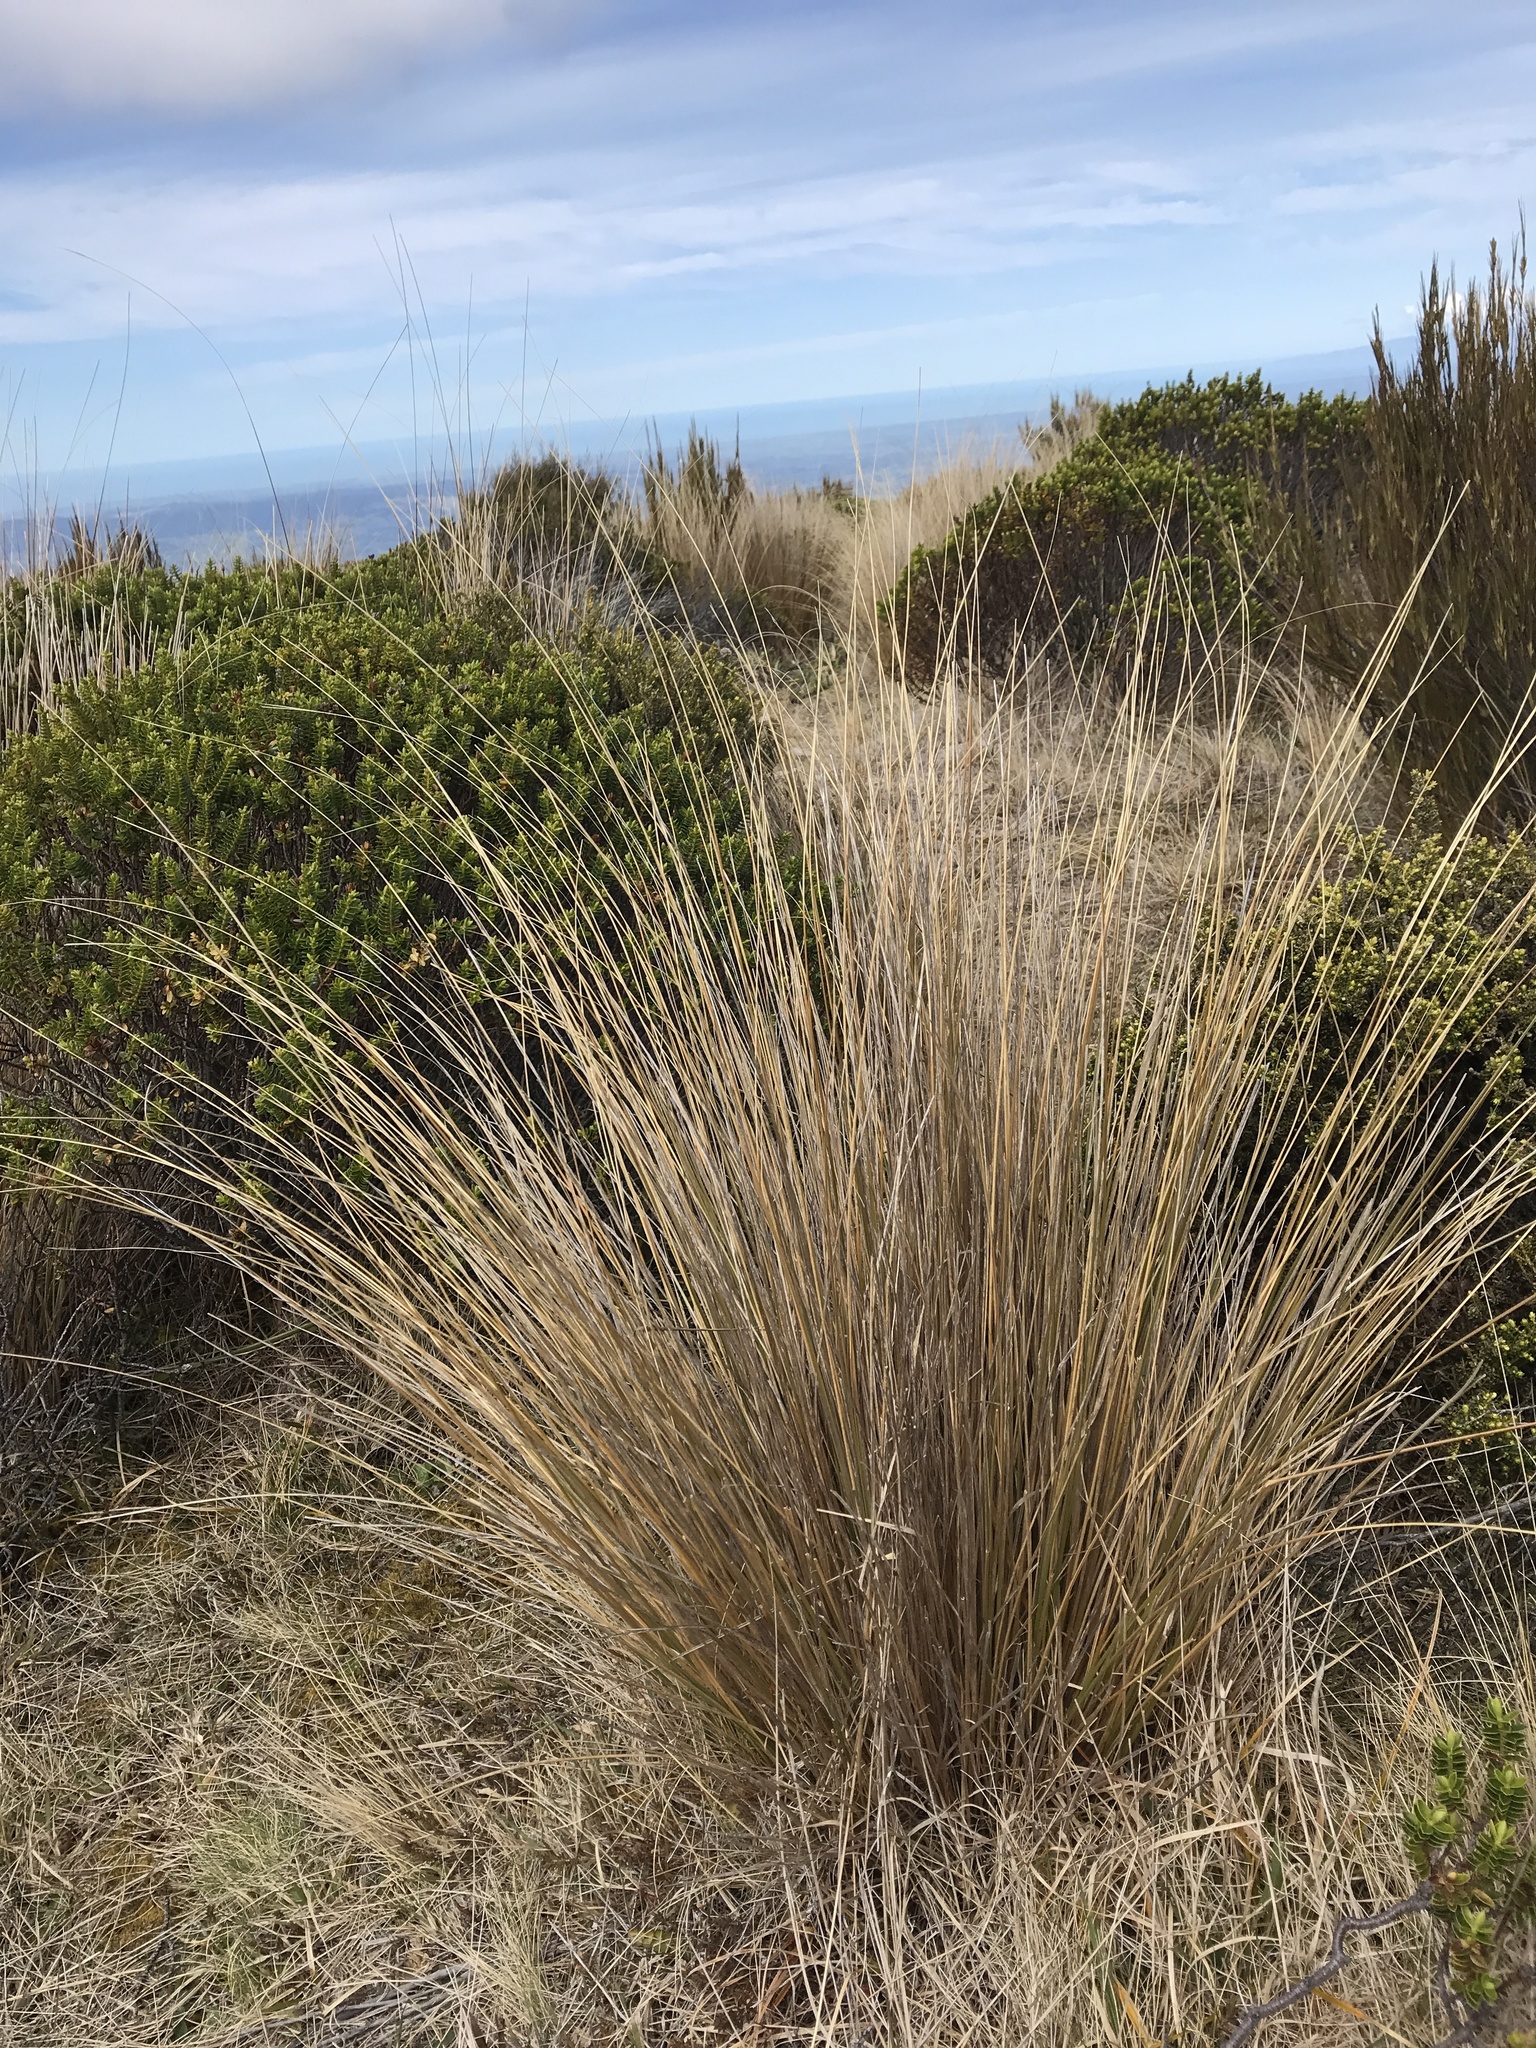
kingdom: Plantae
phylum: Tracheophyta
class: Liliopsida
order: Poales
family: Poaceae
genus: Chionochloa
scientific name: Chionochloa rubra
